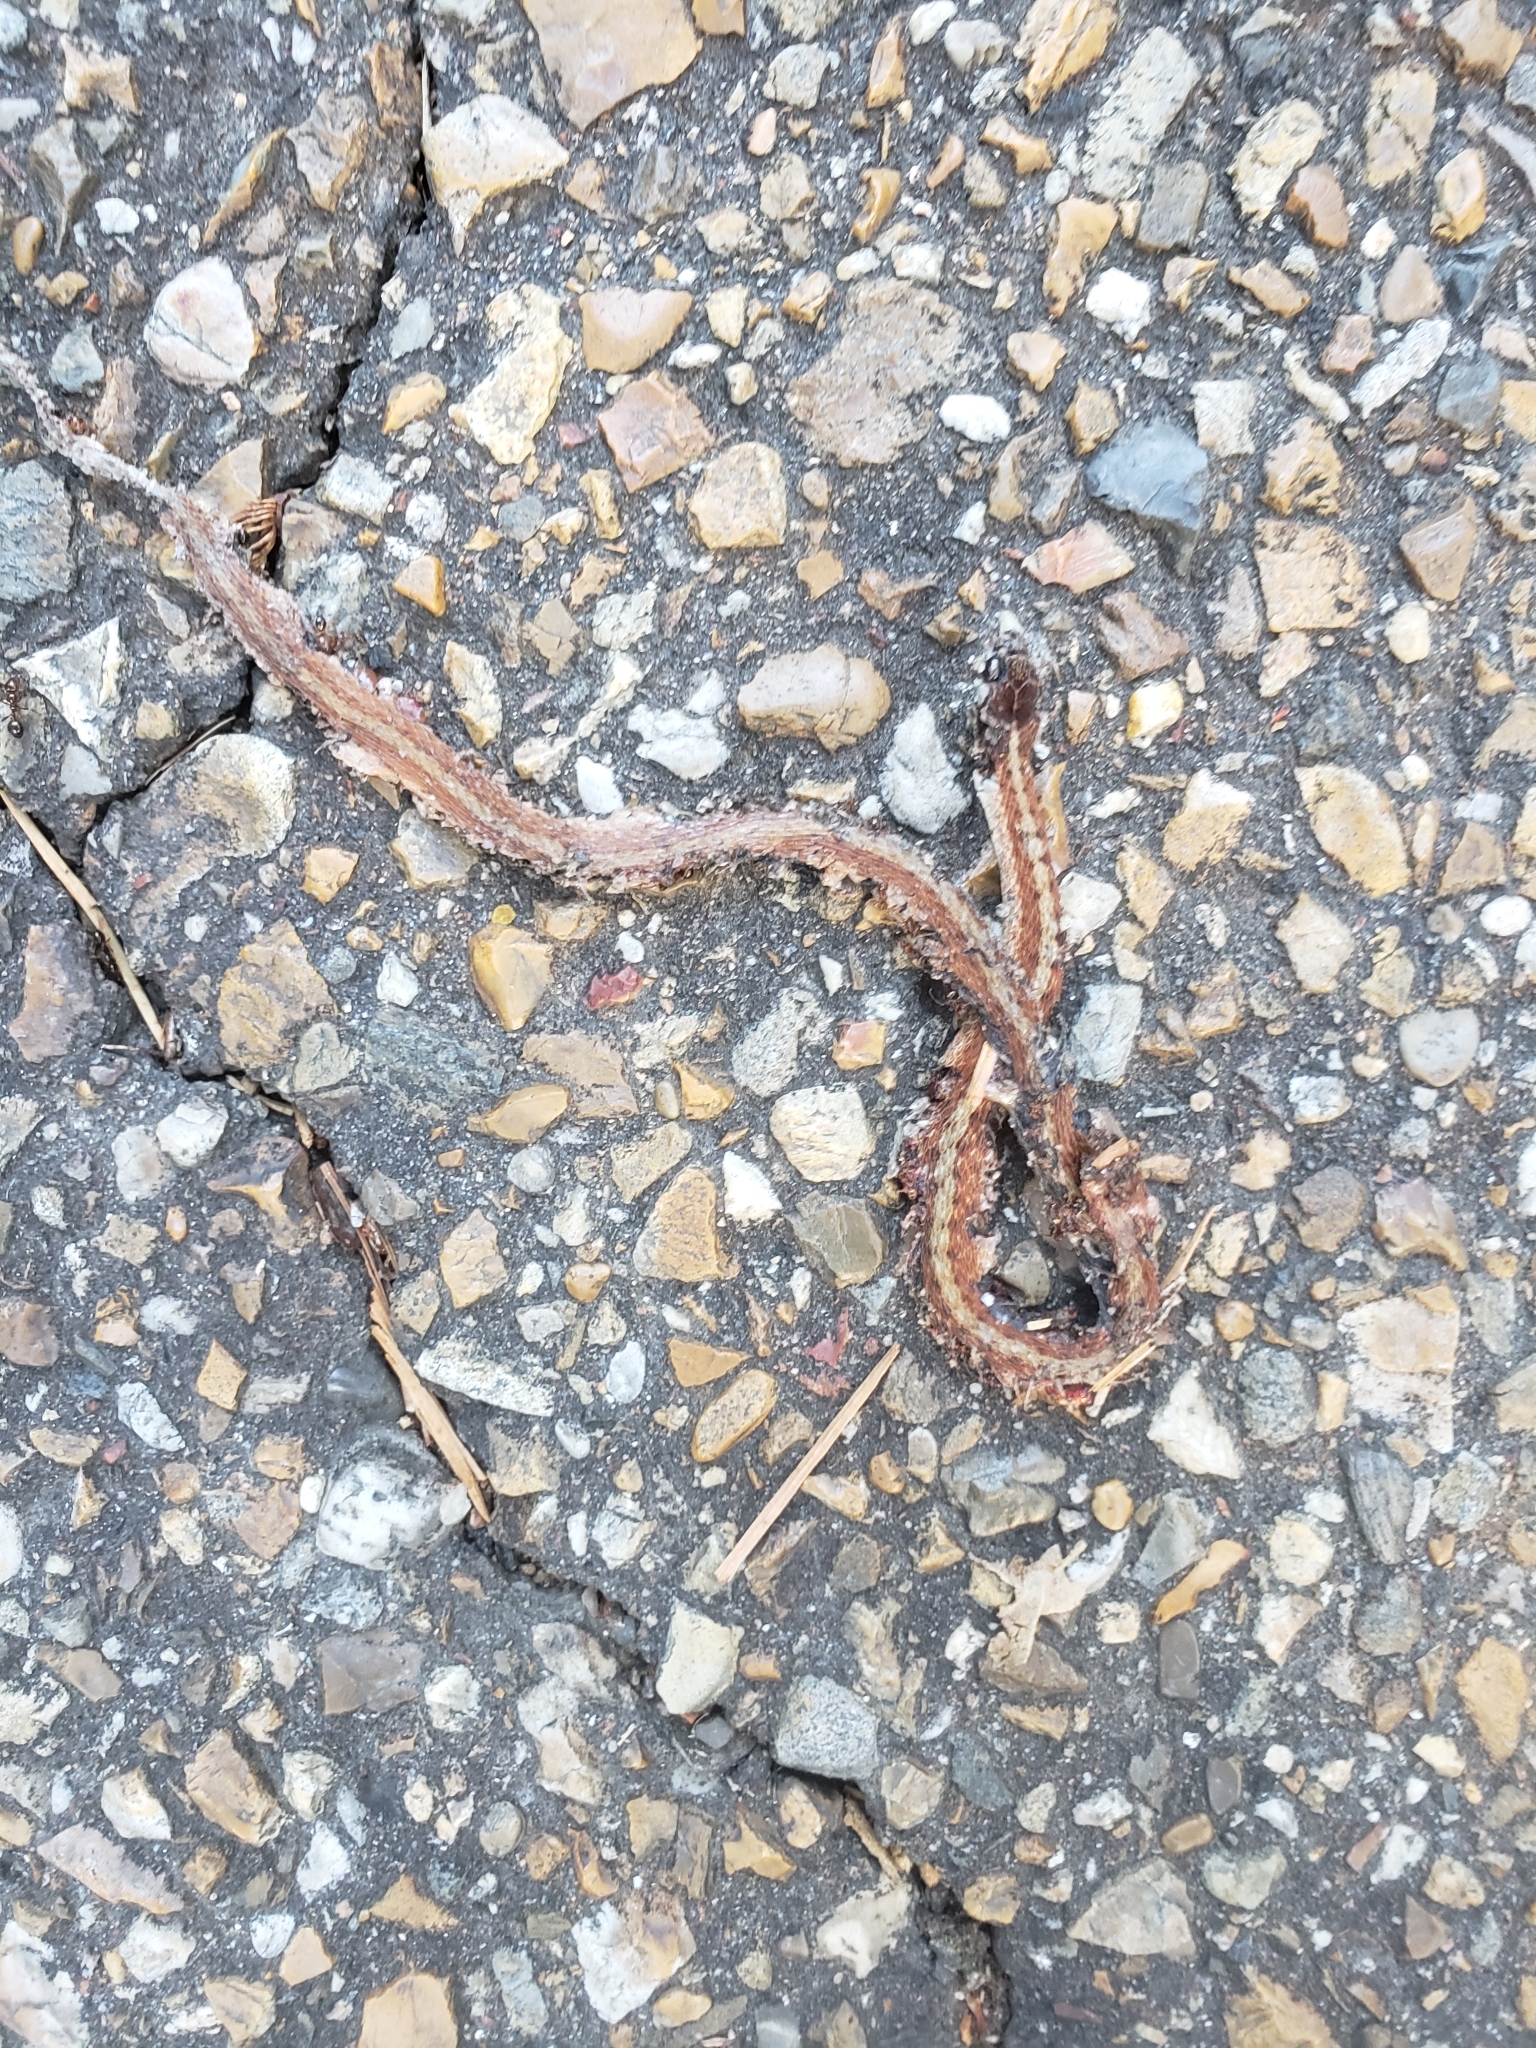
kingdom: Animalia
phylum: Chordata
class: Squamata
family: Colubridae
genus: Storeria
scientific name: Storeria dekayi
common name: (dekay’s) brown snake
